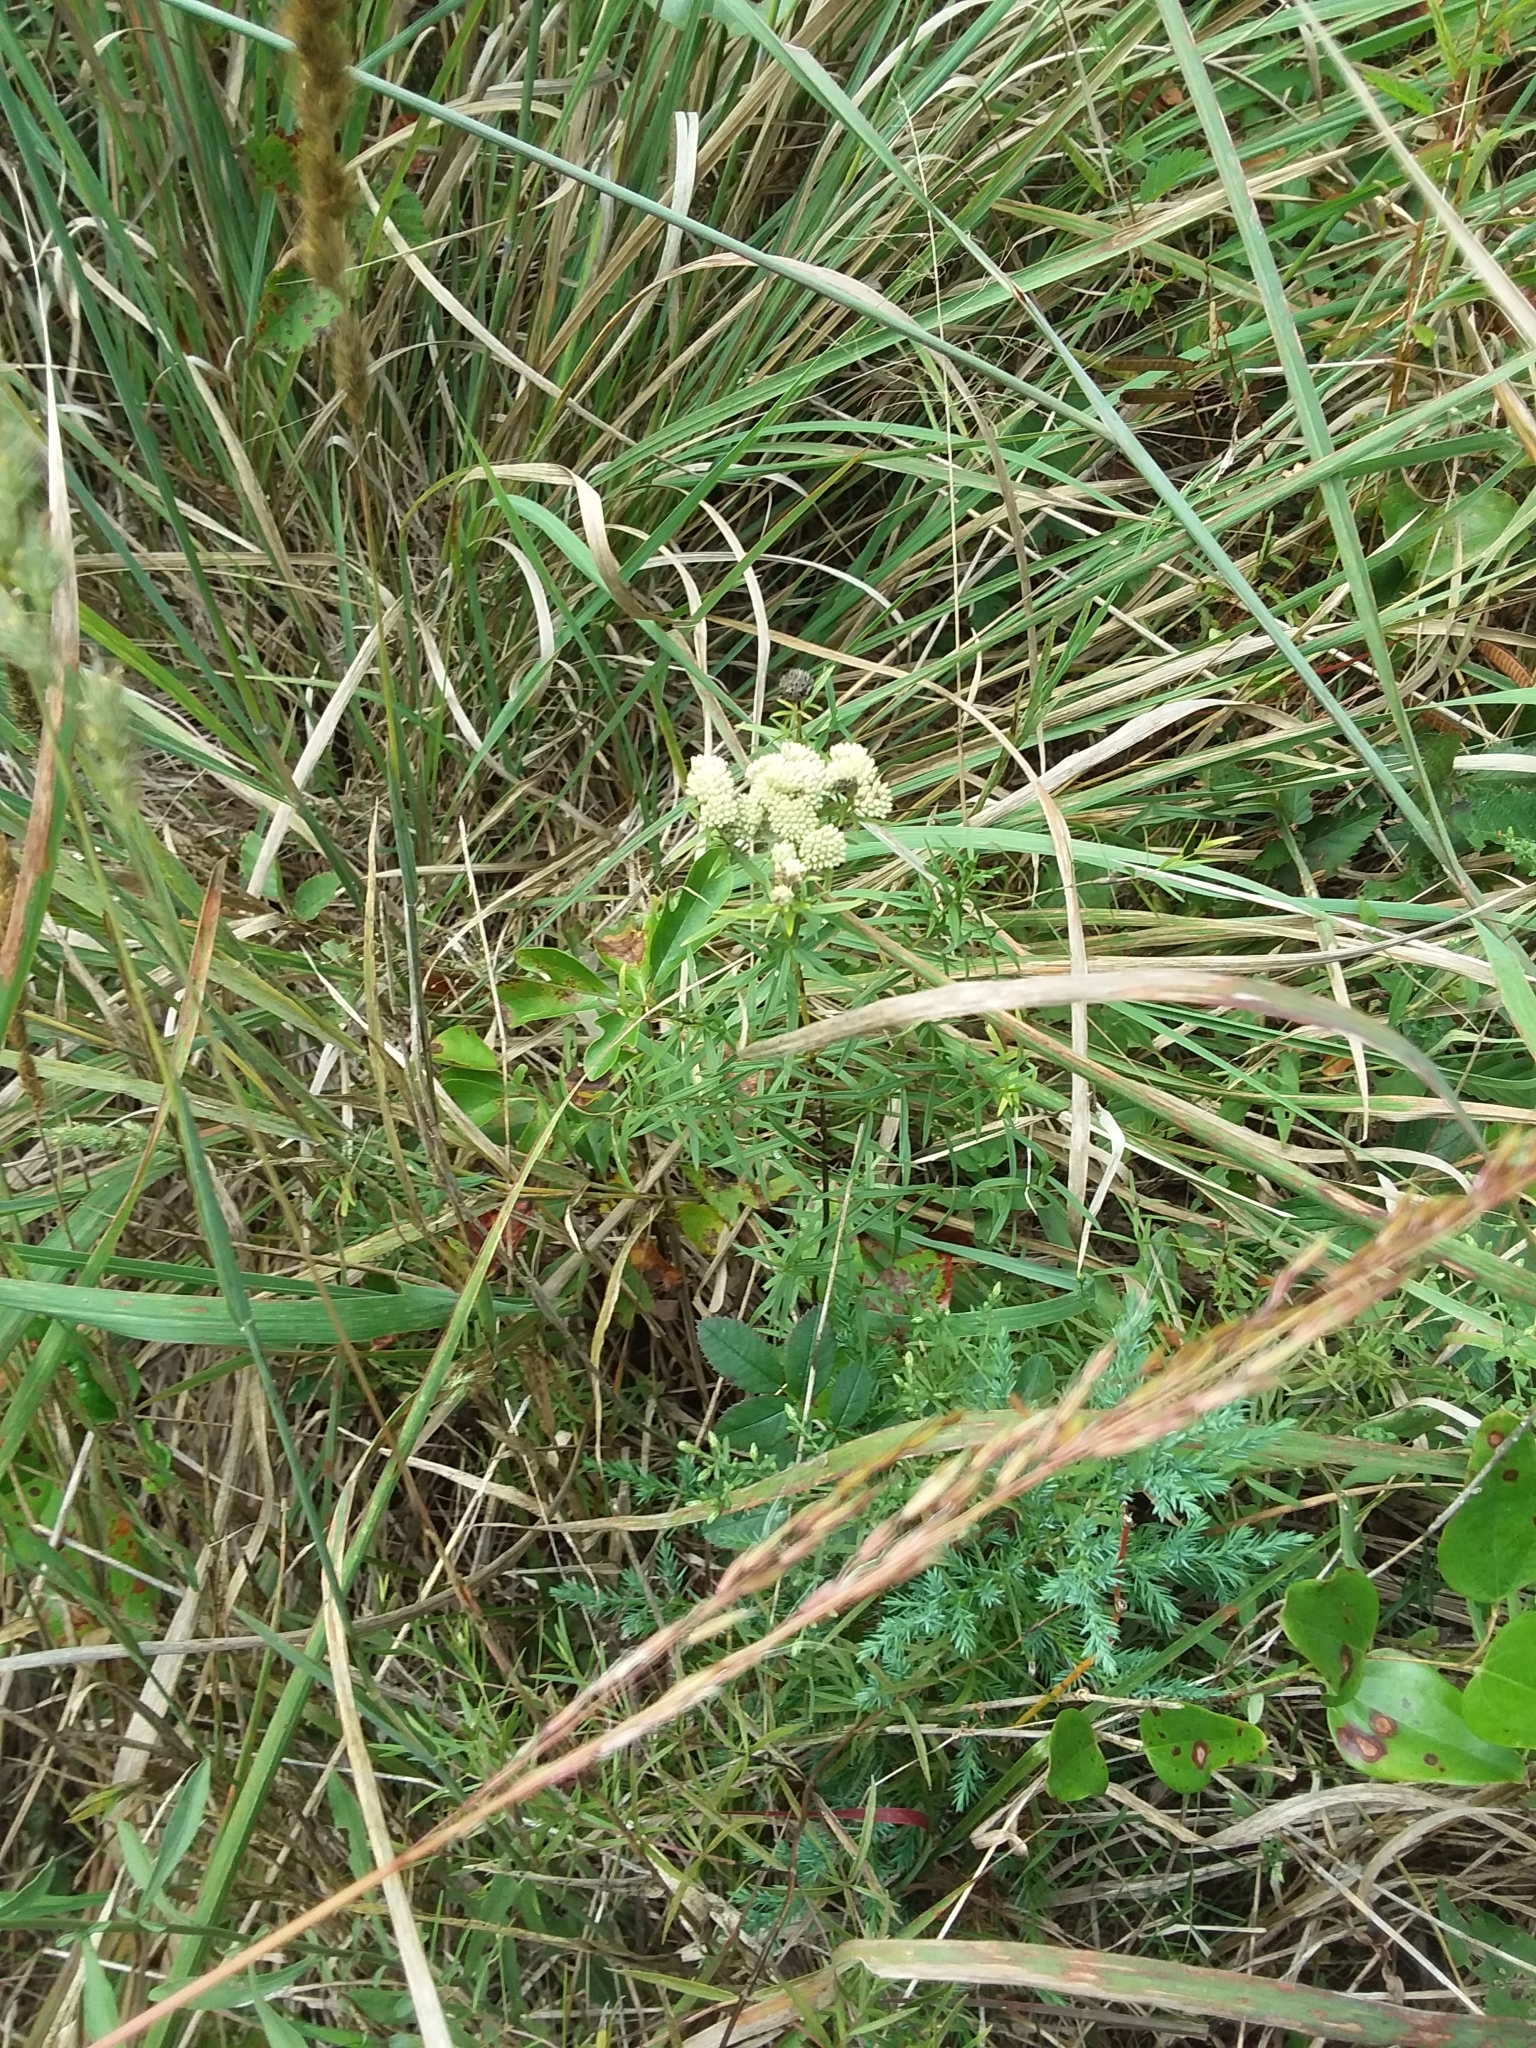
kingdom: Plantae
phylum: Tracheophyta
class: Magnoliopsida
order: Lamiales
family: Lamiaceae
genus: Pycnanthemum
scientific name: Pycnanthemum tenuifolium
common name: Narrow-leaf mountain-mint
